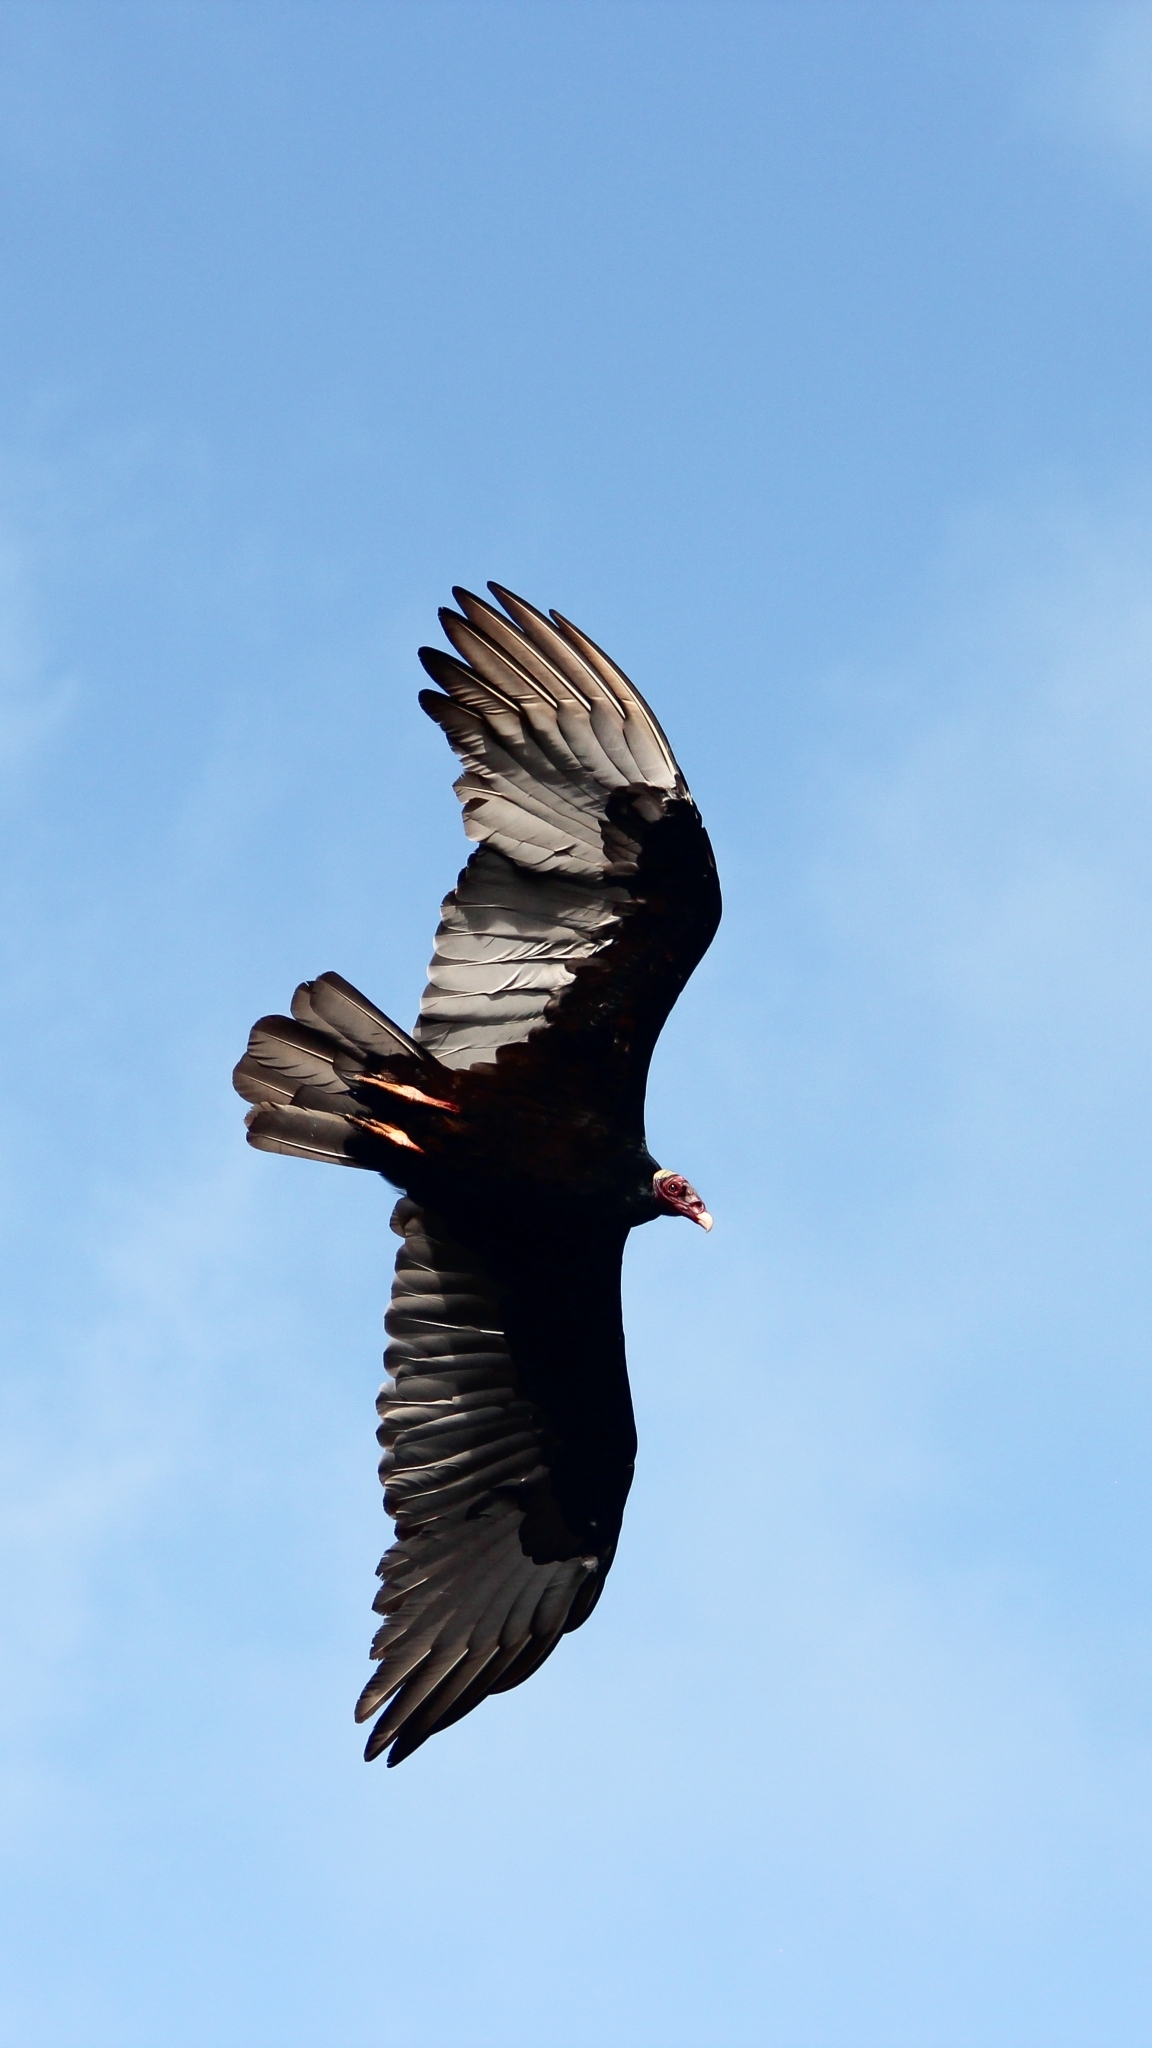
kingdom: Animalia
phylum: Chordata
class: Aves
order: Accipitriformes
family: Cathartidae
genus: Cathartes
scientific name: Cathartes aura
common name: Turkey vulture
